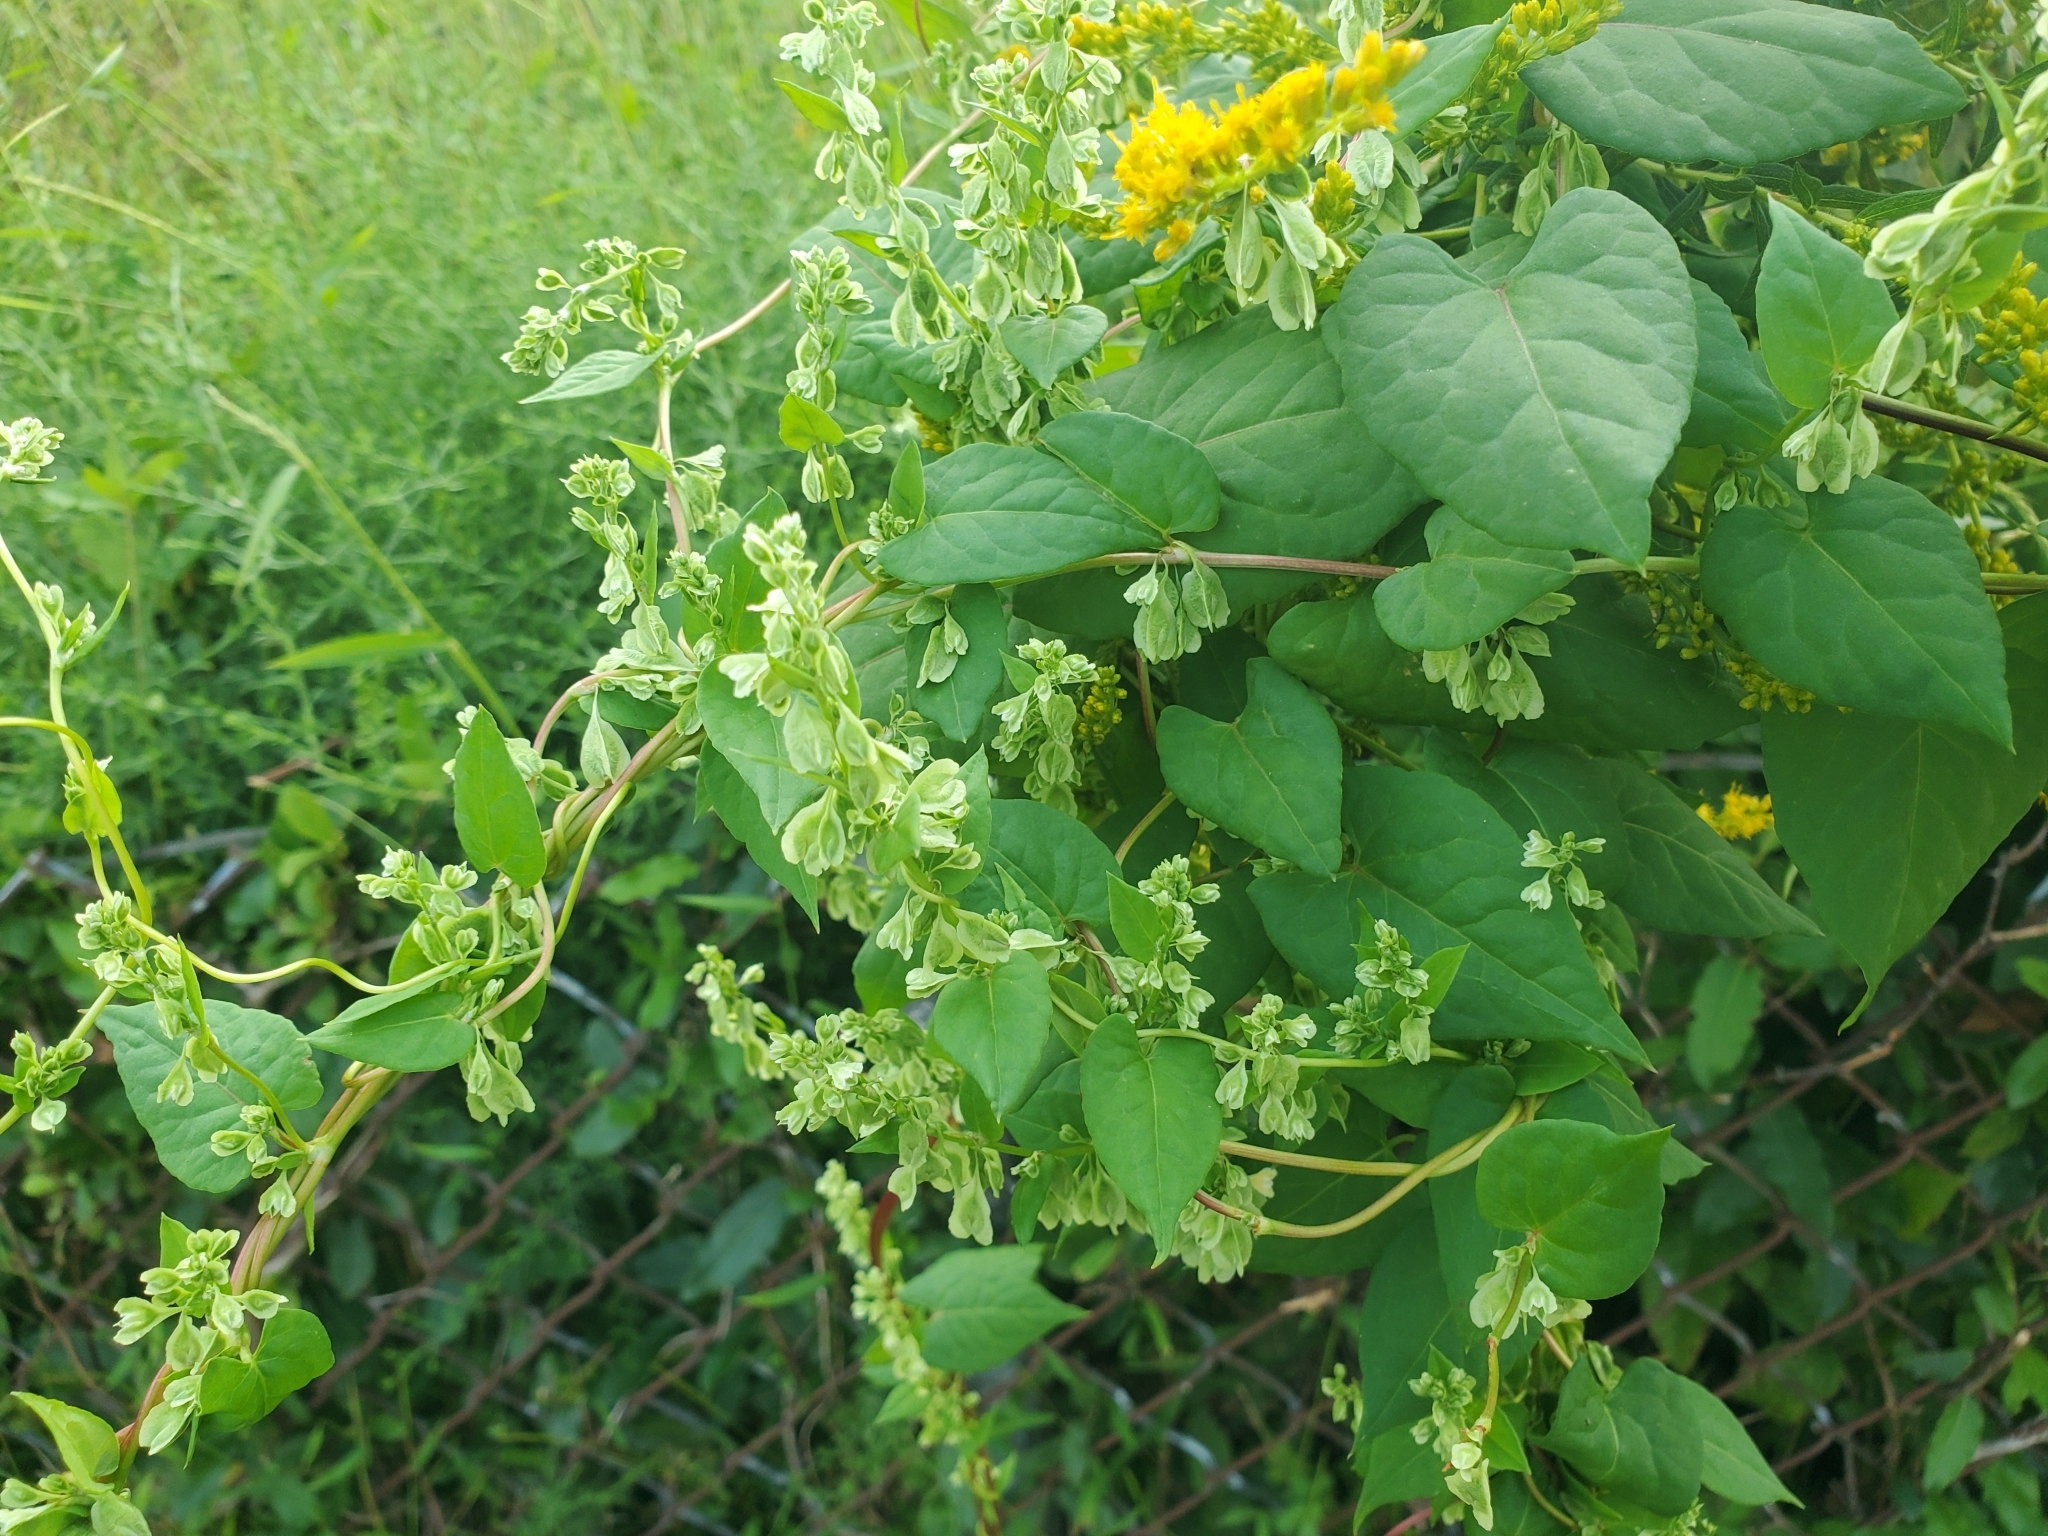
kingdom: Plantae
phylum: Tracheophyta
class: Magnoliopsida
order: Caryophyllales
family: Polygonaceae
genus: Fallopia
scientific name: Fallopia scandens
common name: Climbing false buckwheat
